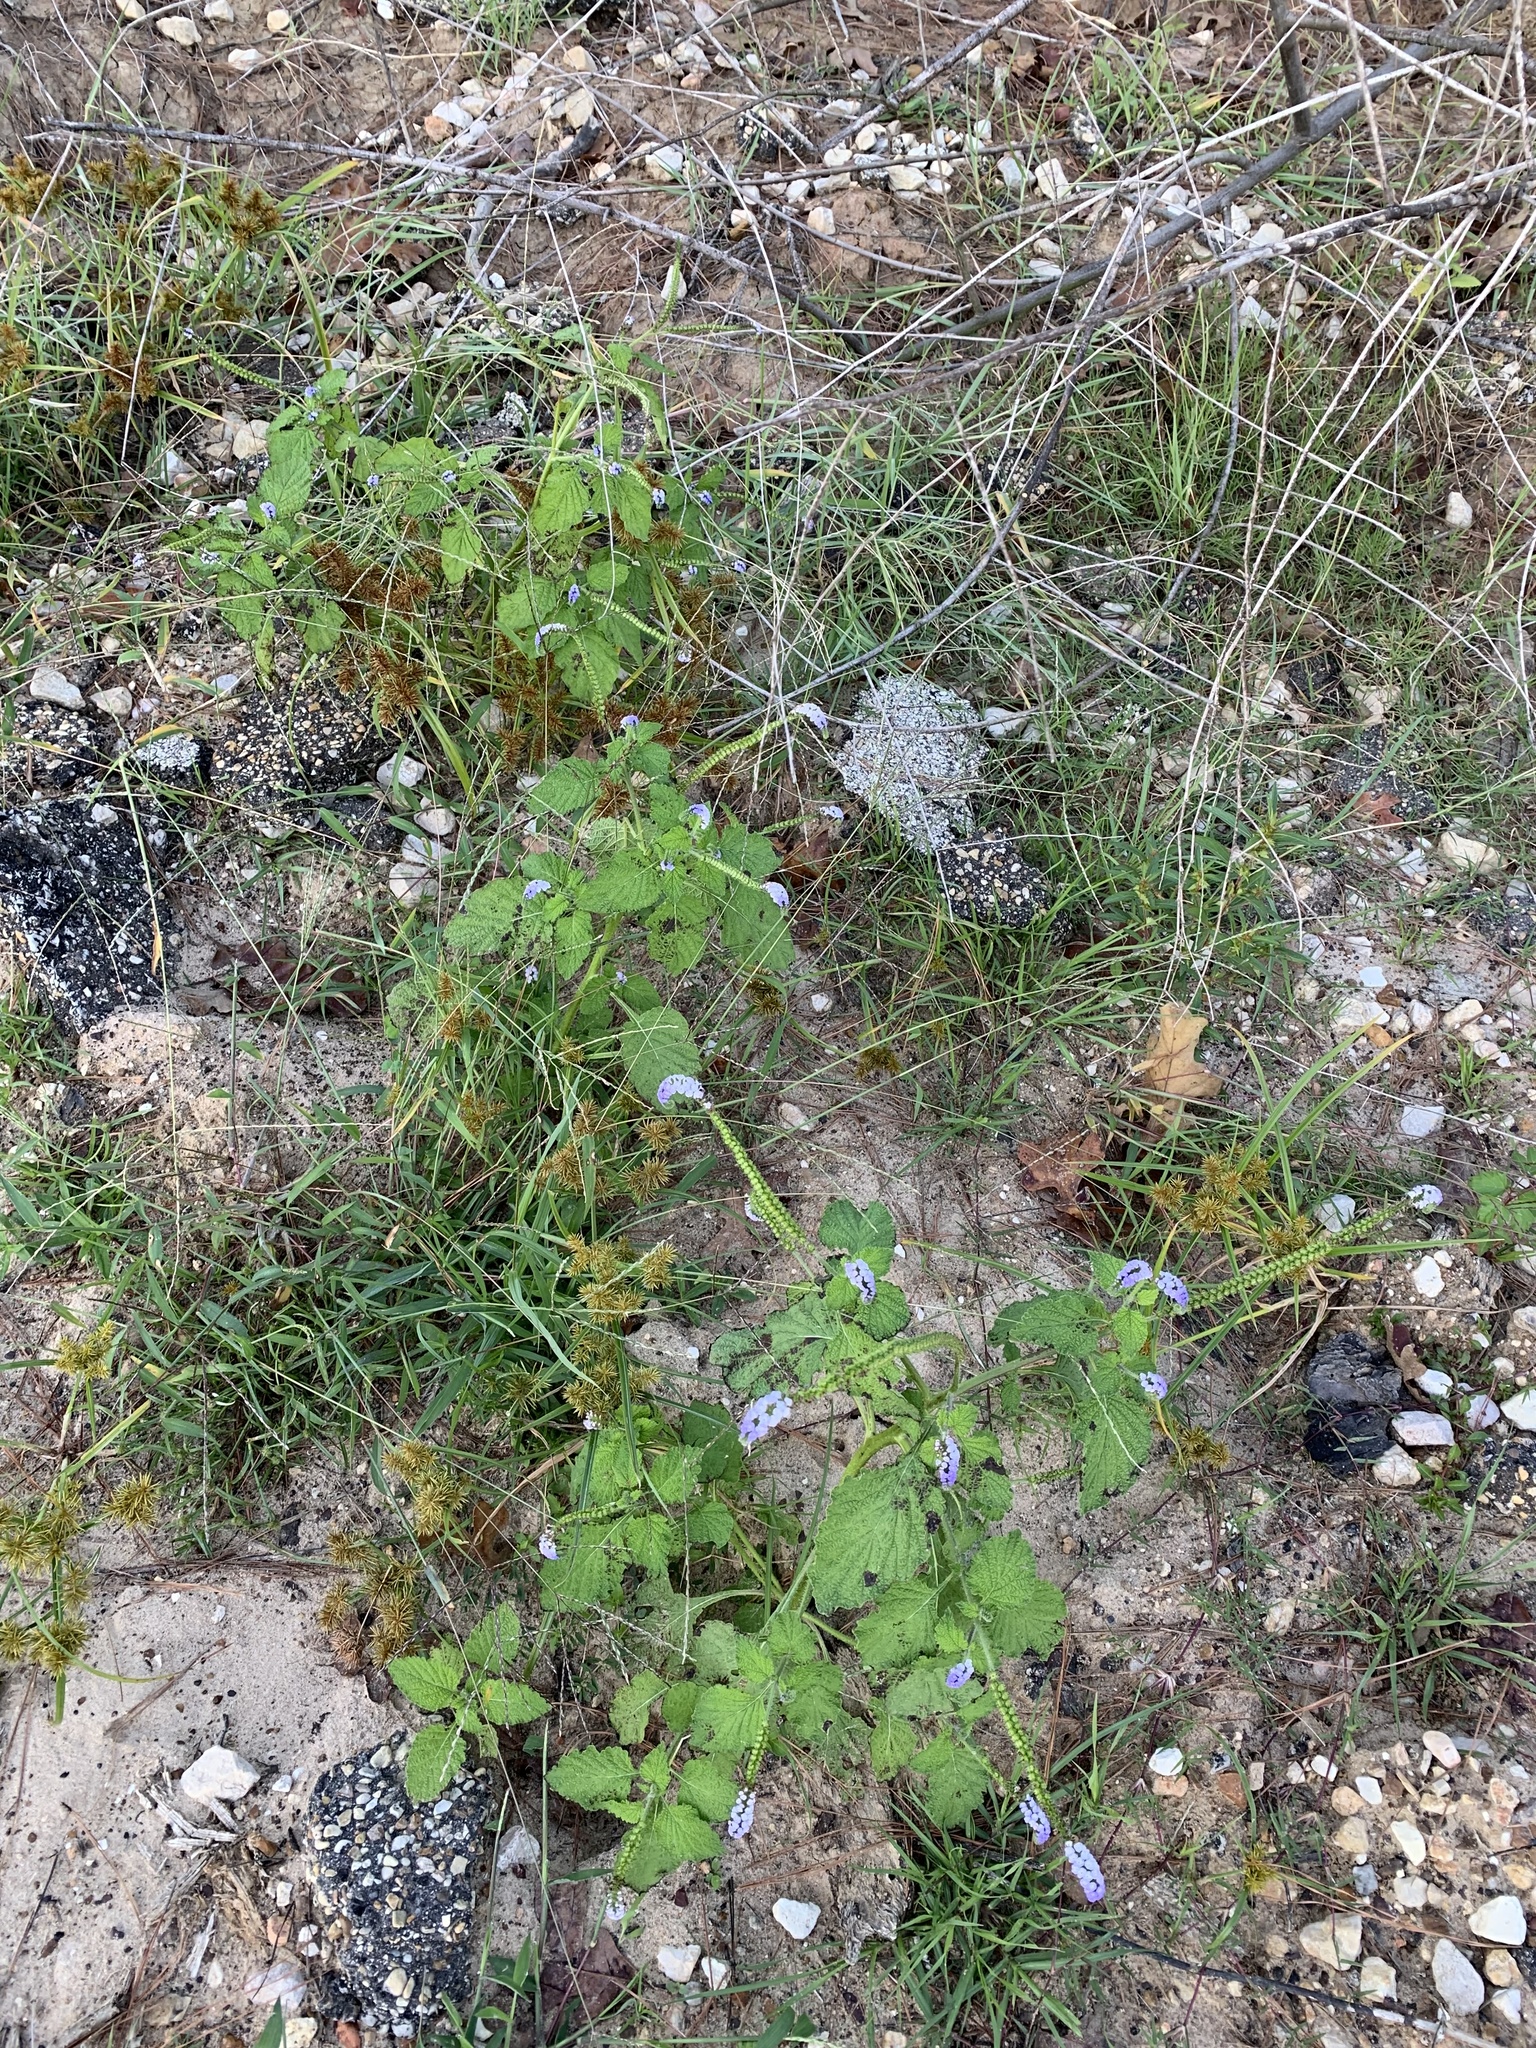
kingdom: Plantae
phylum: Tracheophyta
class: Magnoliopsida
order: Boraginales
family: Heliotropiaceae
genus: Heliotropium
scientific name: Heliotropium indicum
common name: Indian heliotrope
